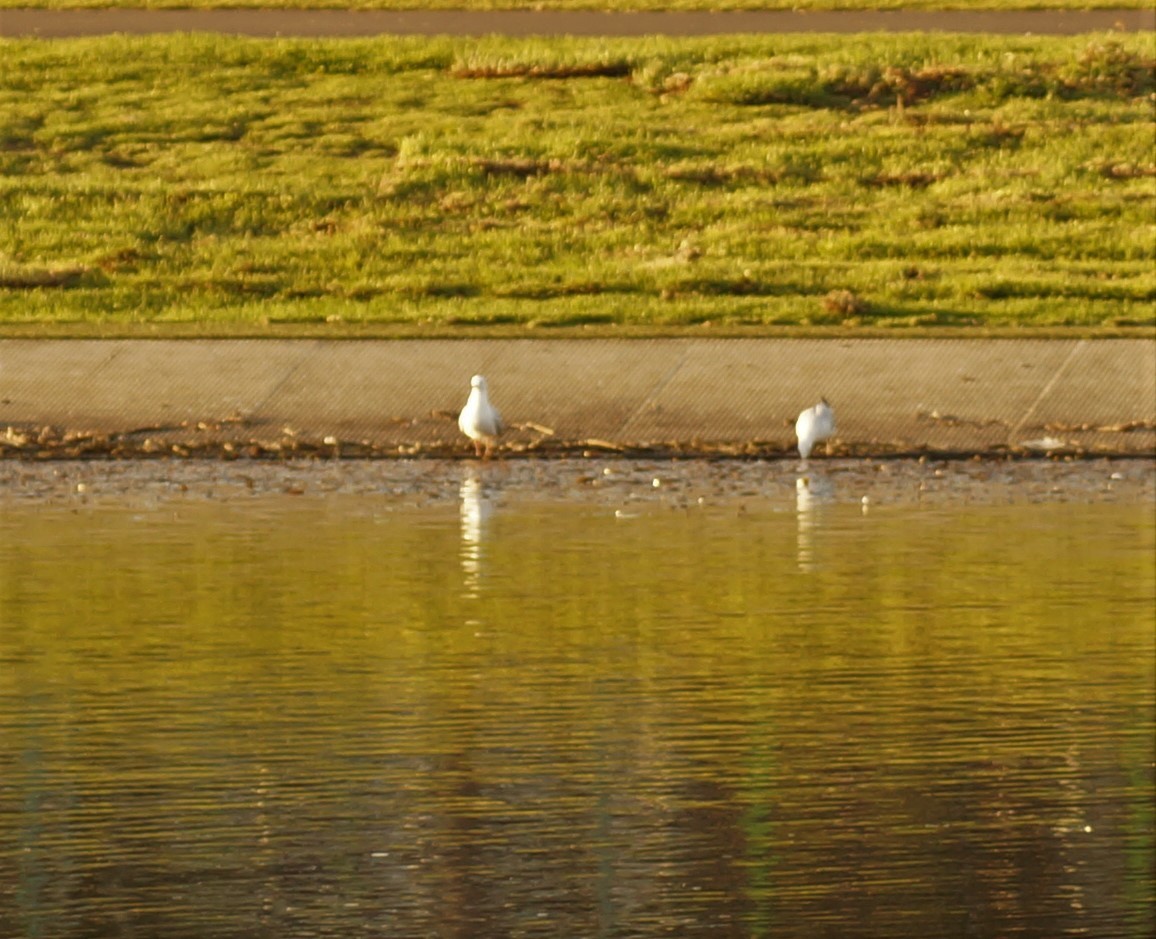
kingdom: Animalia
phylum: Chordata
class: Aves
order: Charadriiformes
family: Laridae
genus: Chroicocephalus
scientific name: Chroicocephalus novaehollandiae
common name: Silver gull
